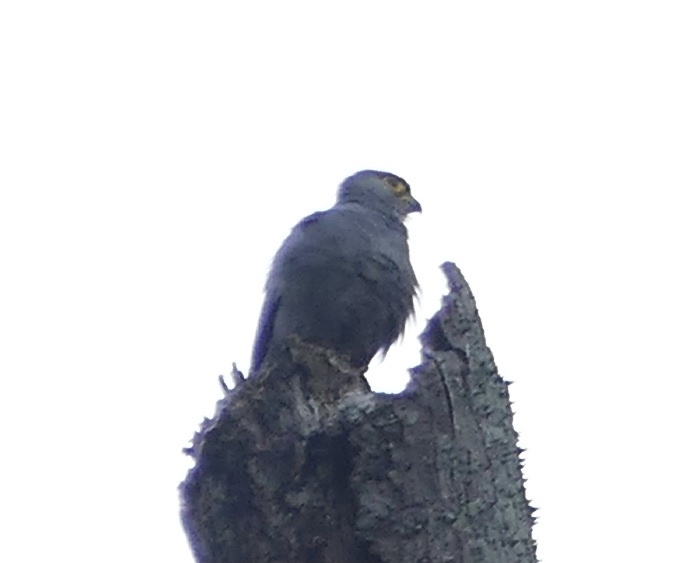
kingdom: Animalia
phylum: Chordata
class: Aves
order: Falconiformes
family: Falconidae
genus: Falco
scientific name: Falco ardosiaceus
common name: Grey kestrel
